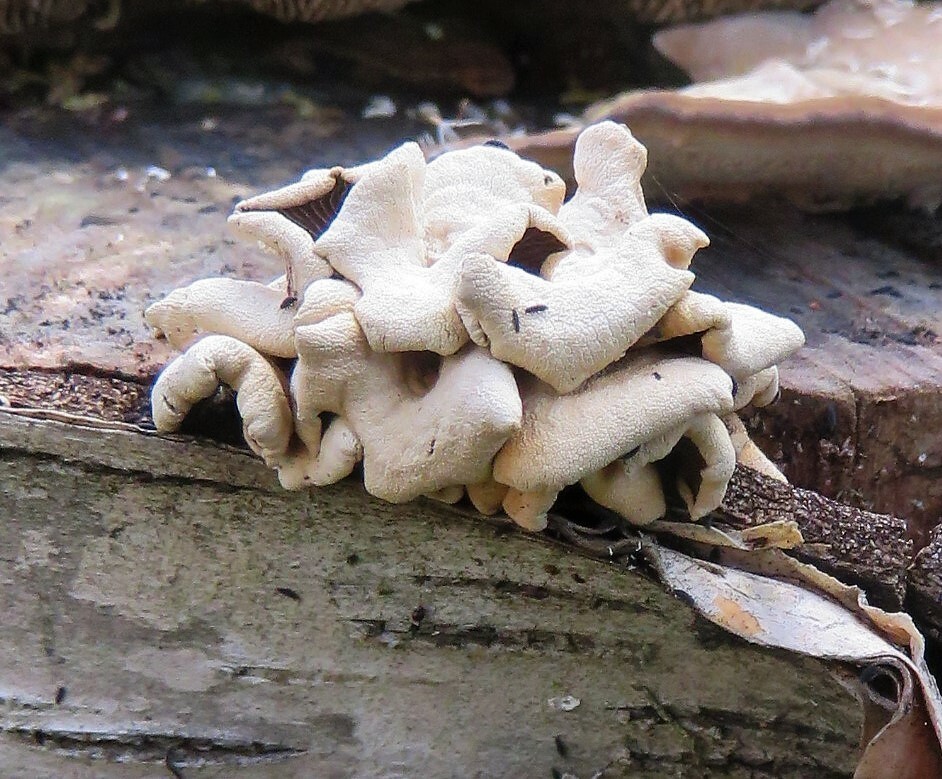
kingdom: Fungi
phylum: Basidiomycota
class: Agaricomycetes
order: Agaricales
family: Mycenaceae
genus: Panellus
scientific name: Panellus stipticus
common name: Bitter oysterling
